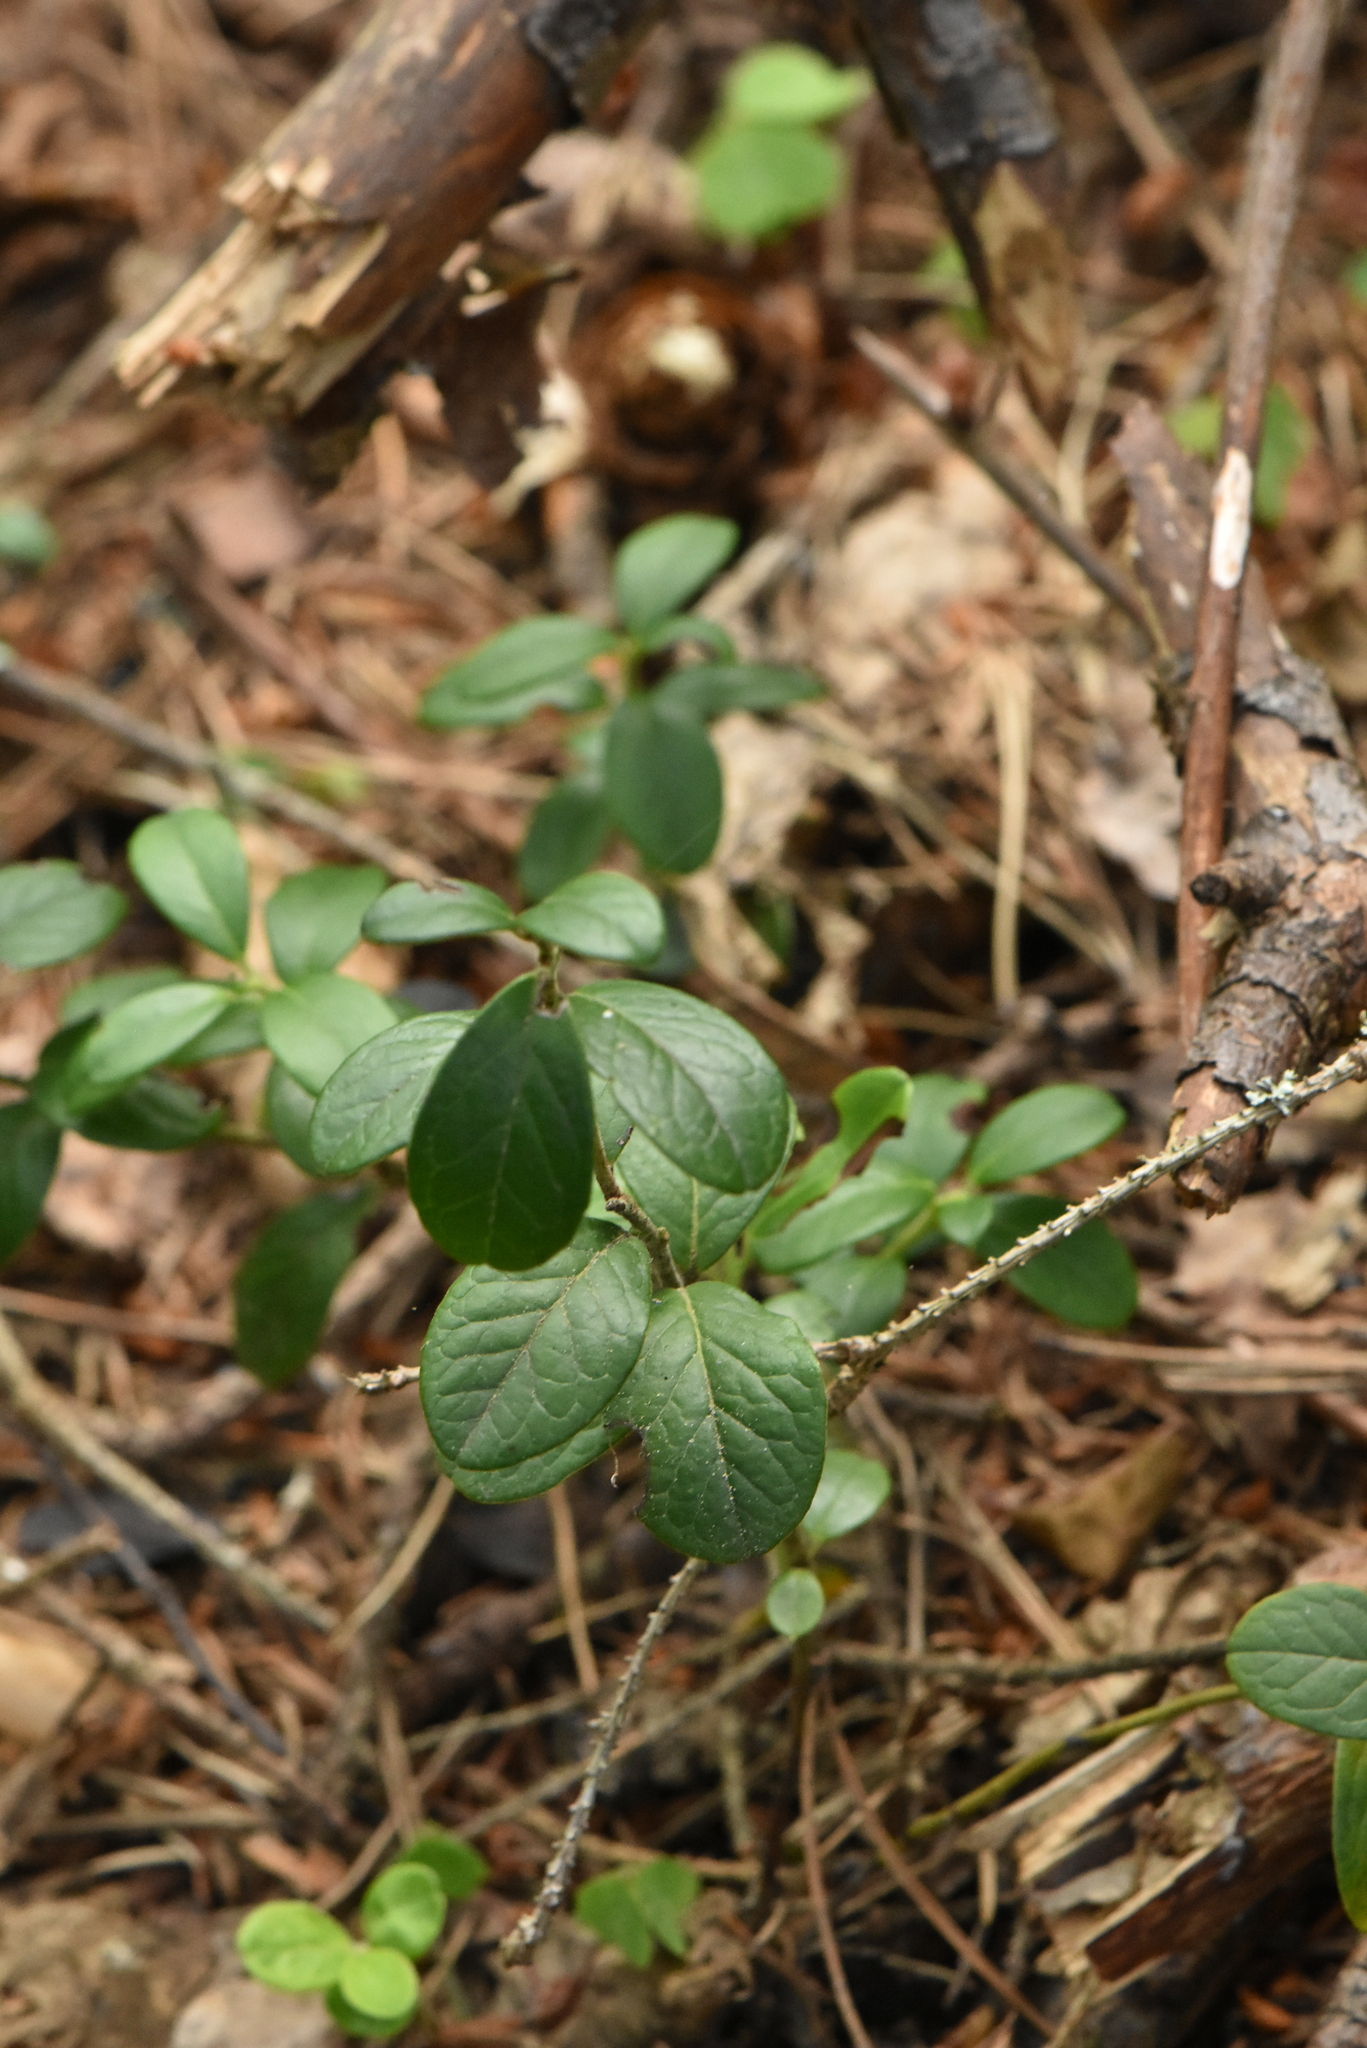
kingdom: Plantae
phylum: Tracheophyta
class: Magnoliopsida
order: Ericales
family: Ericaceae
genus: Vaccinium
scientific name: Vaccinium vitis-idaea
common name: Cowberry
